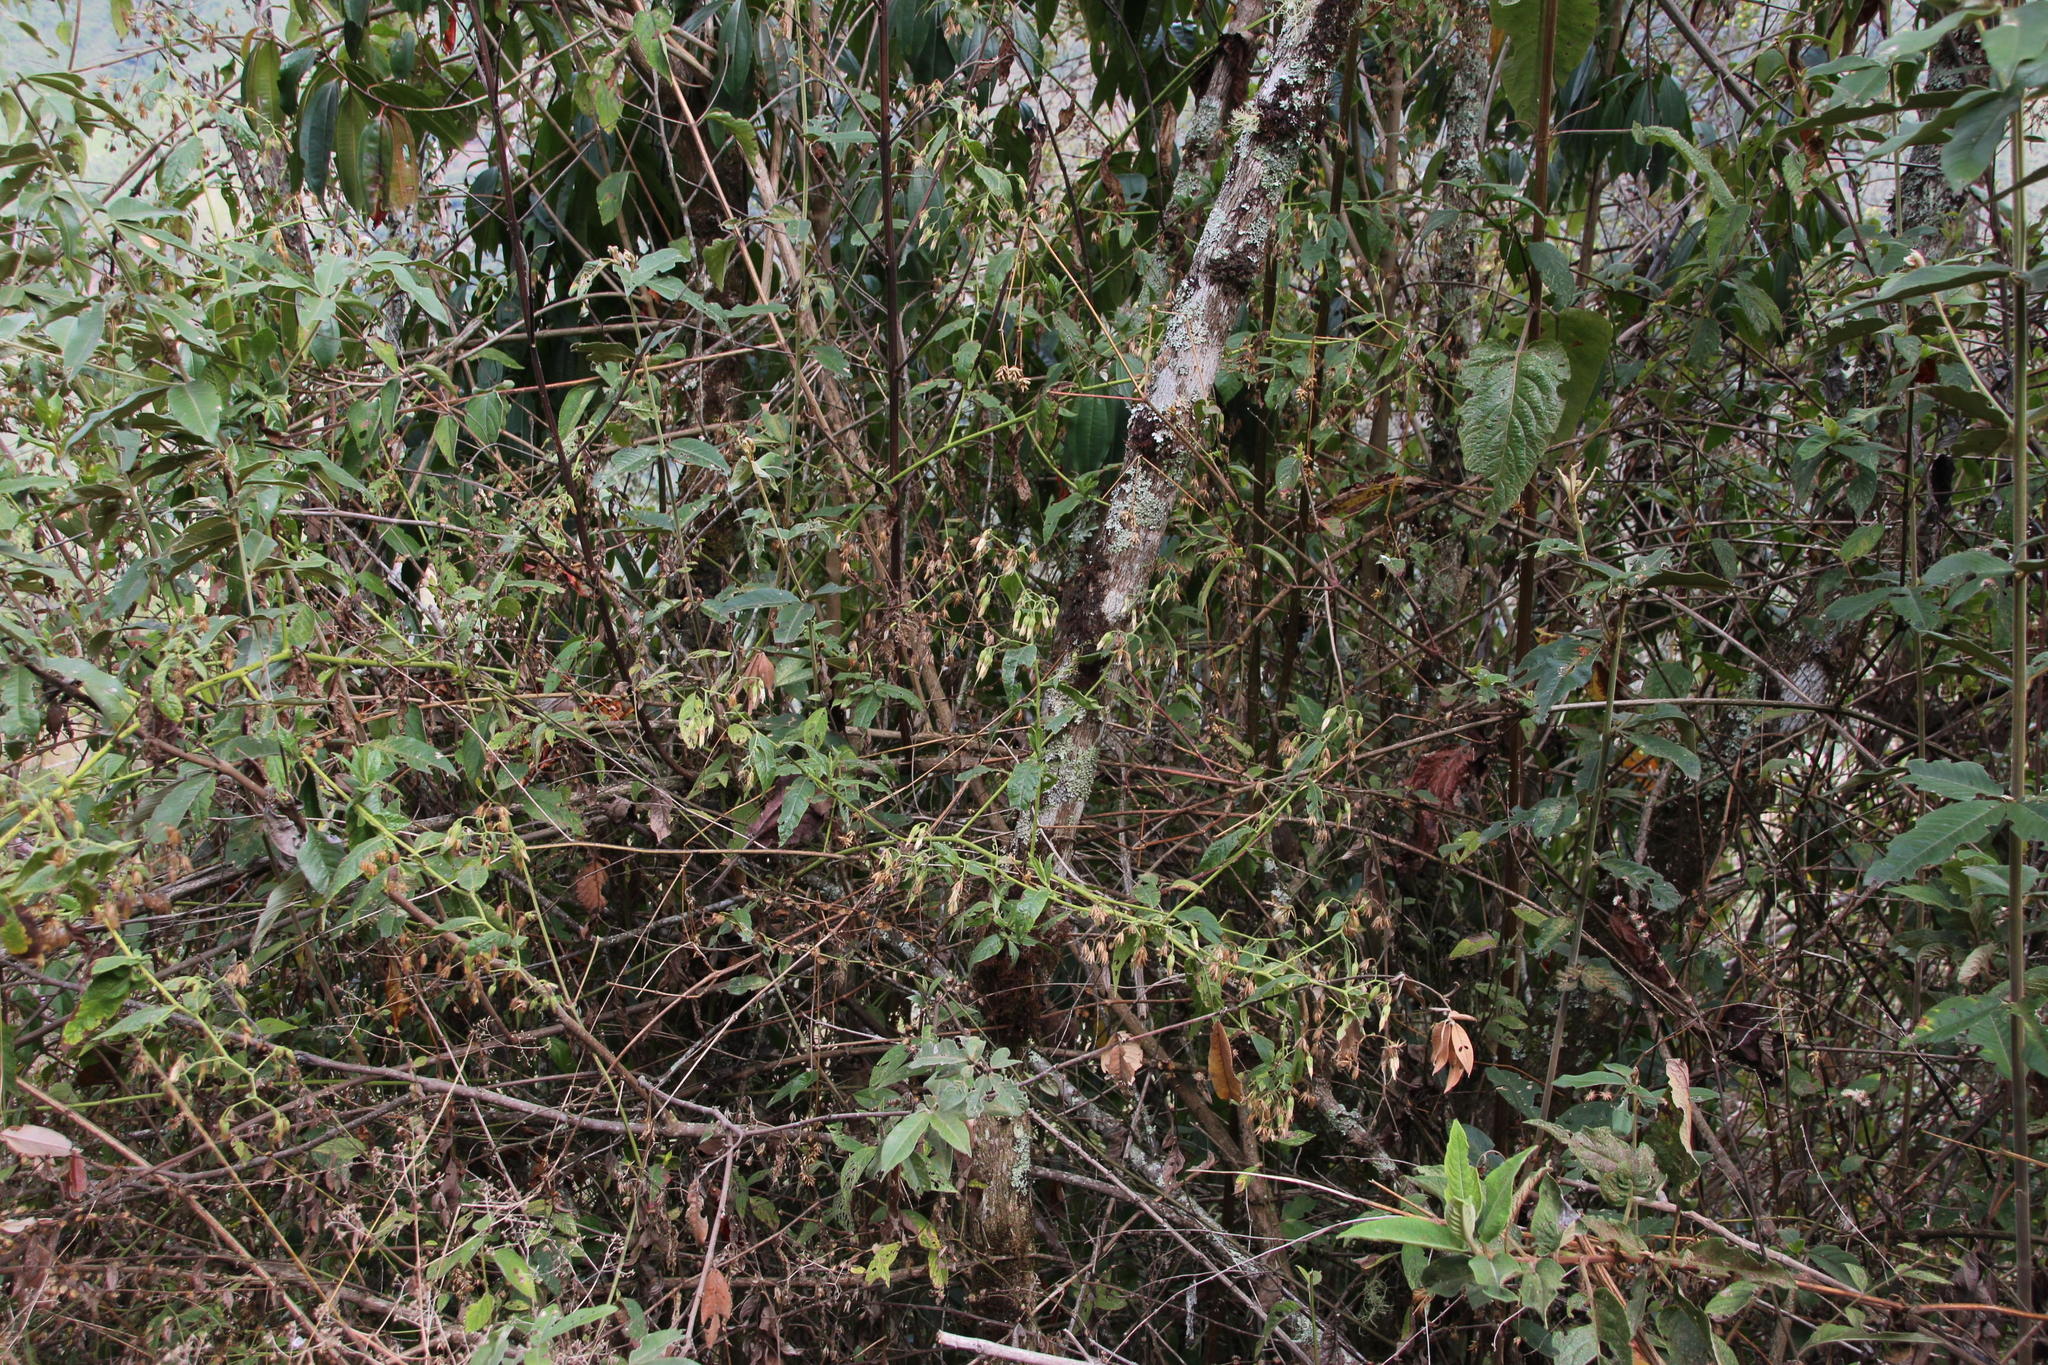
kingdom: Plantae
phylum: Tracheophyta
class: Magnoliopsida
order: Asterales
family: Asteraceae
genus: Trixis
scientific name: Trixis divaricata
